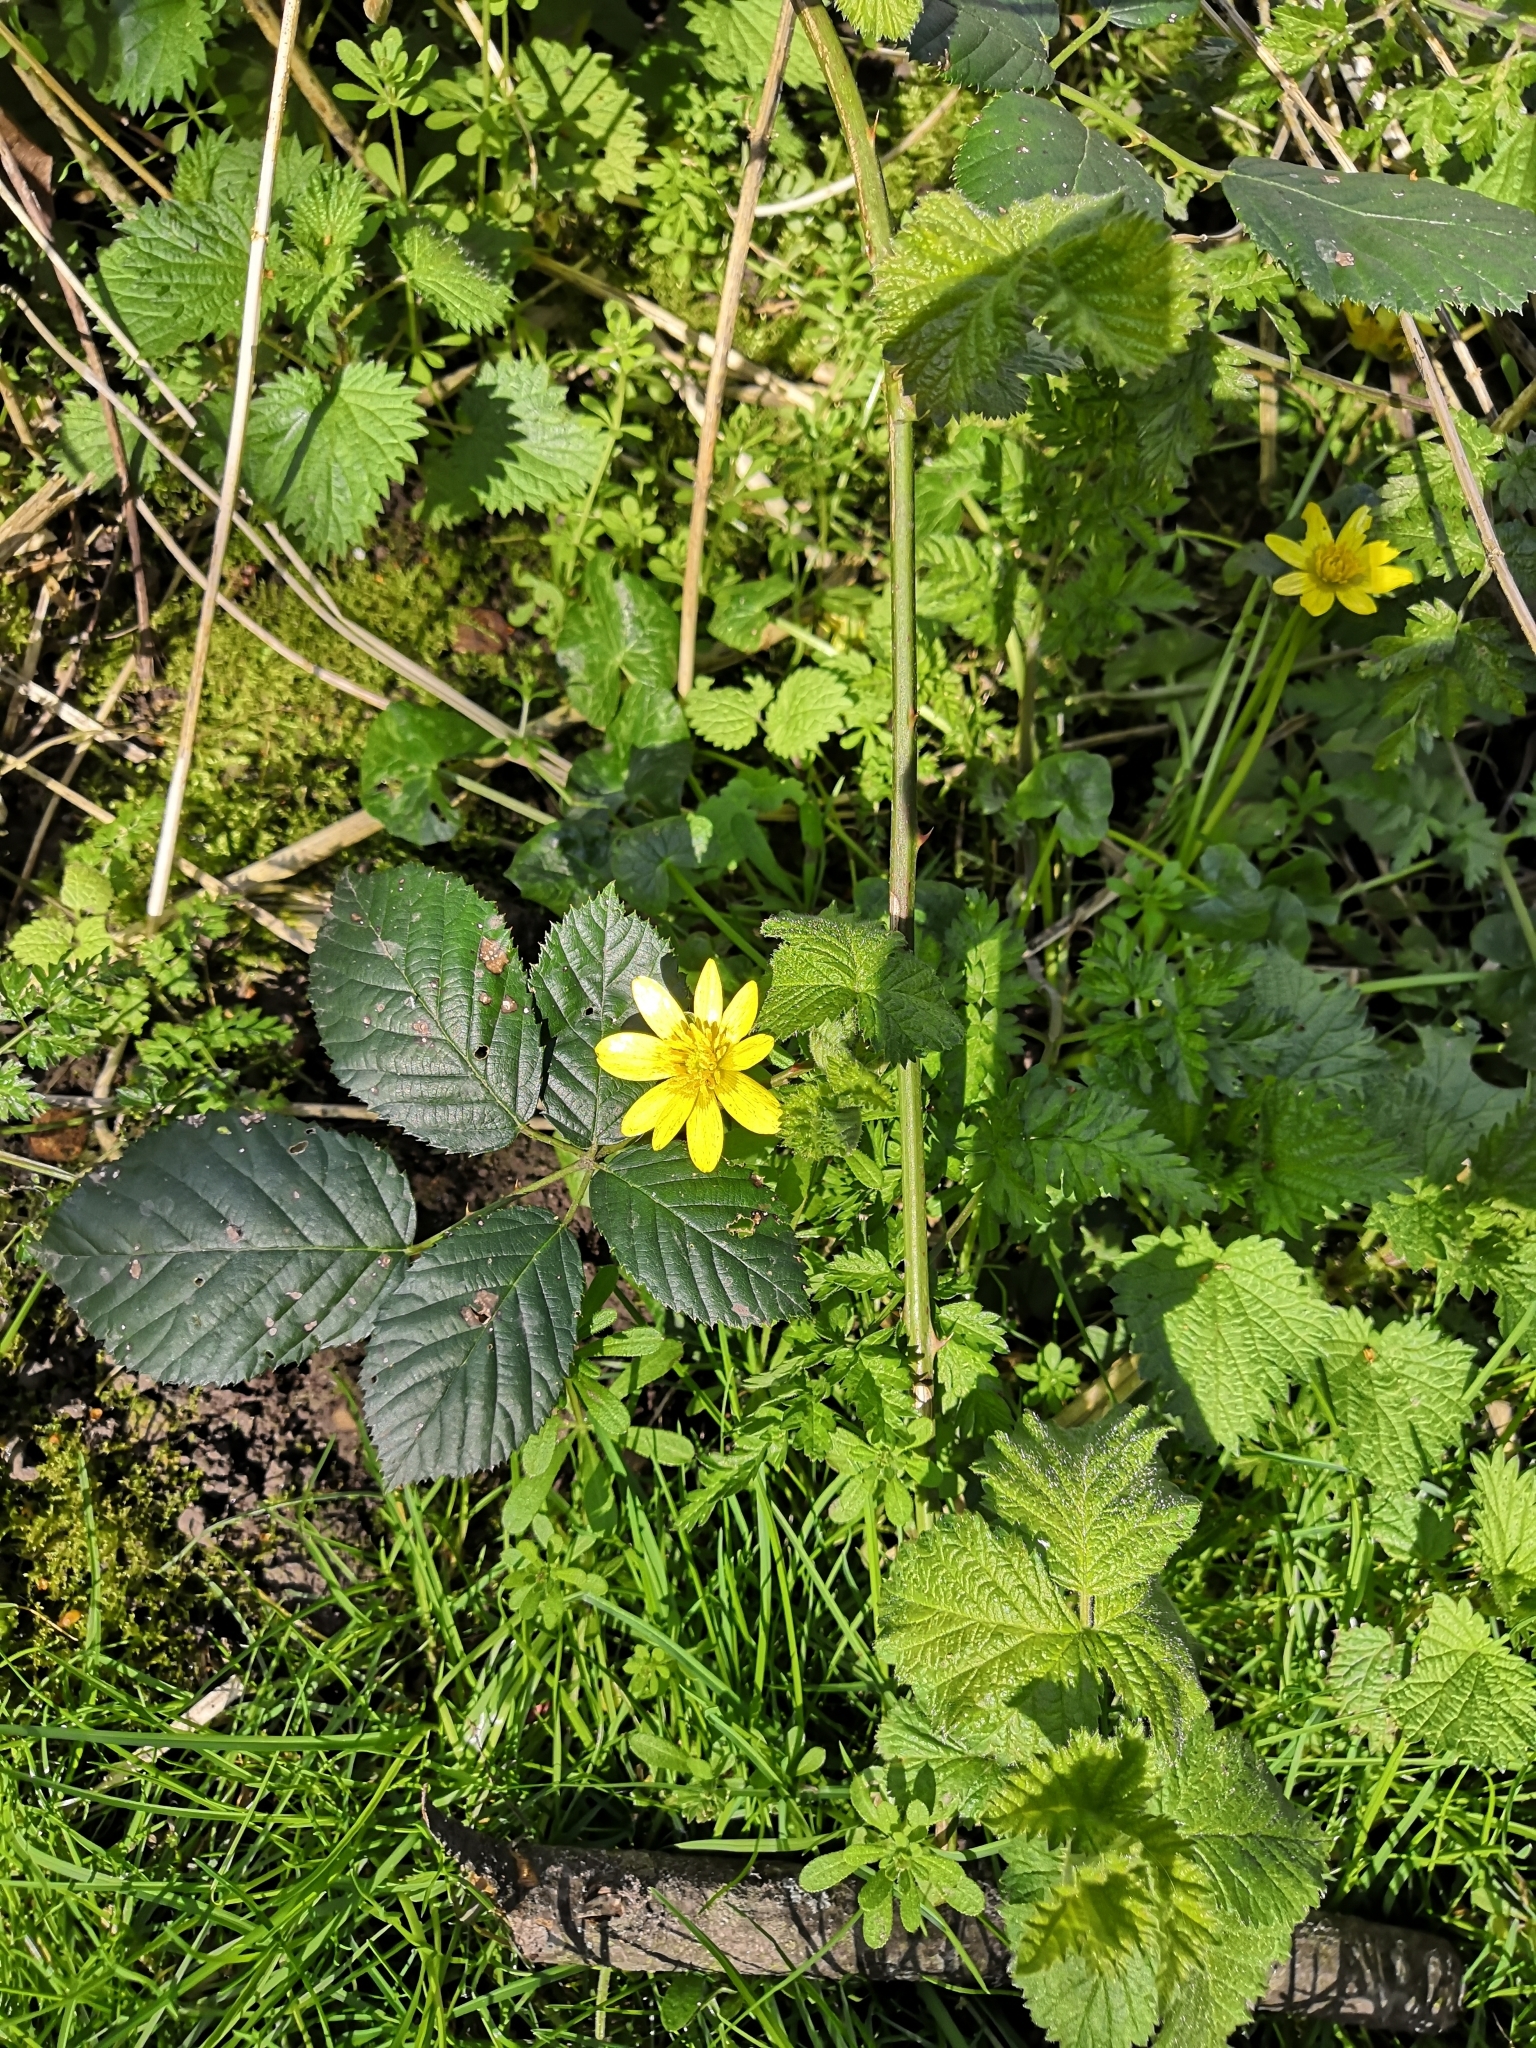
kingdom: Plantae
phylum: Tracheophyta
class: Magnoliopsida
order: Ranunculales
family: Ranunculaceae
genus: Ficaria
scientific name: Ficaria verna
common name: Lesser celandine
